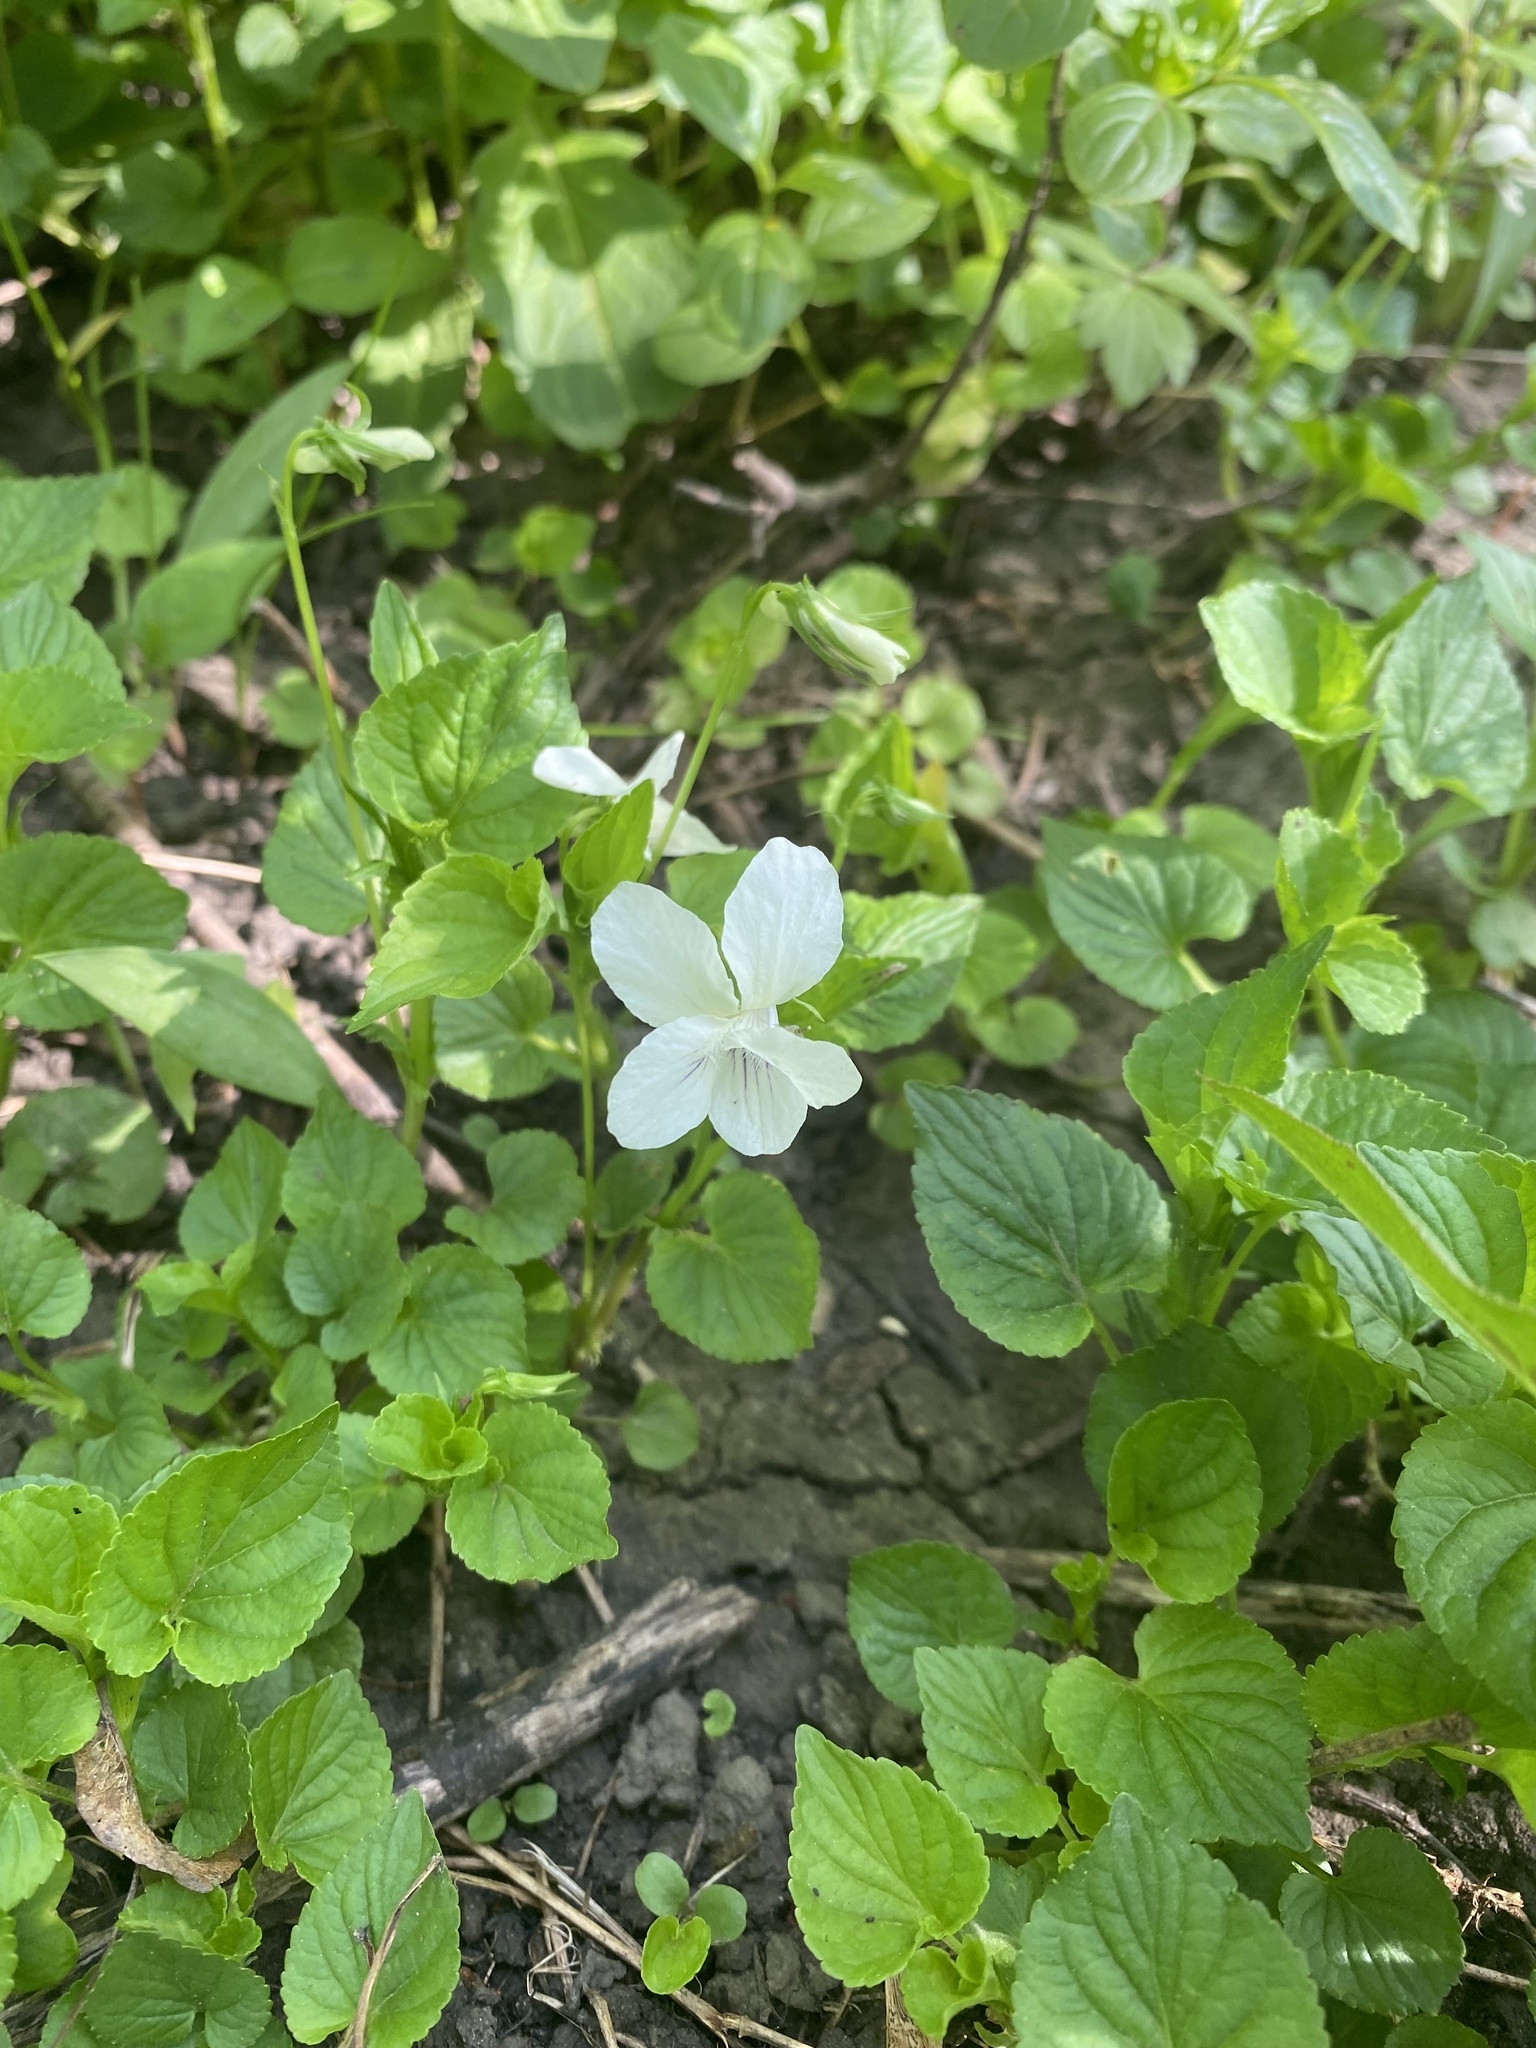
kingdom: Plantae
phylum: Tracheophyta
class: Magnoliopsida
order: Malpighiales
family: Violaceae
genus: Viola
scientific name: Viola striata
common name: Cream violet
